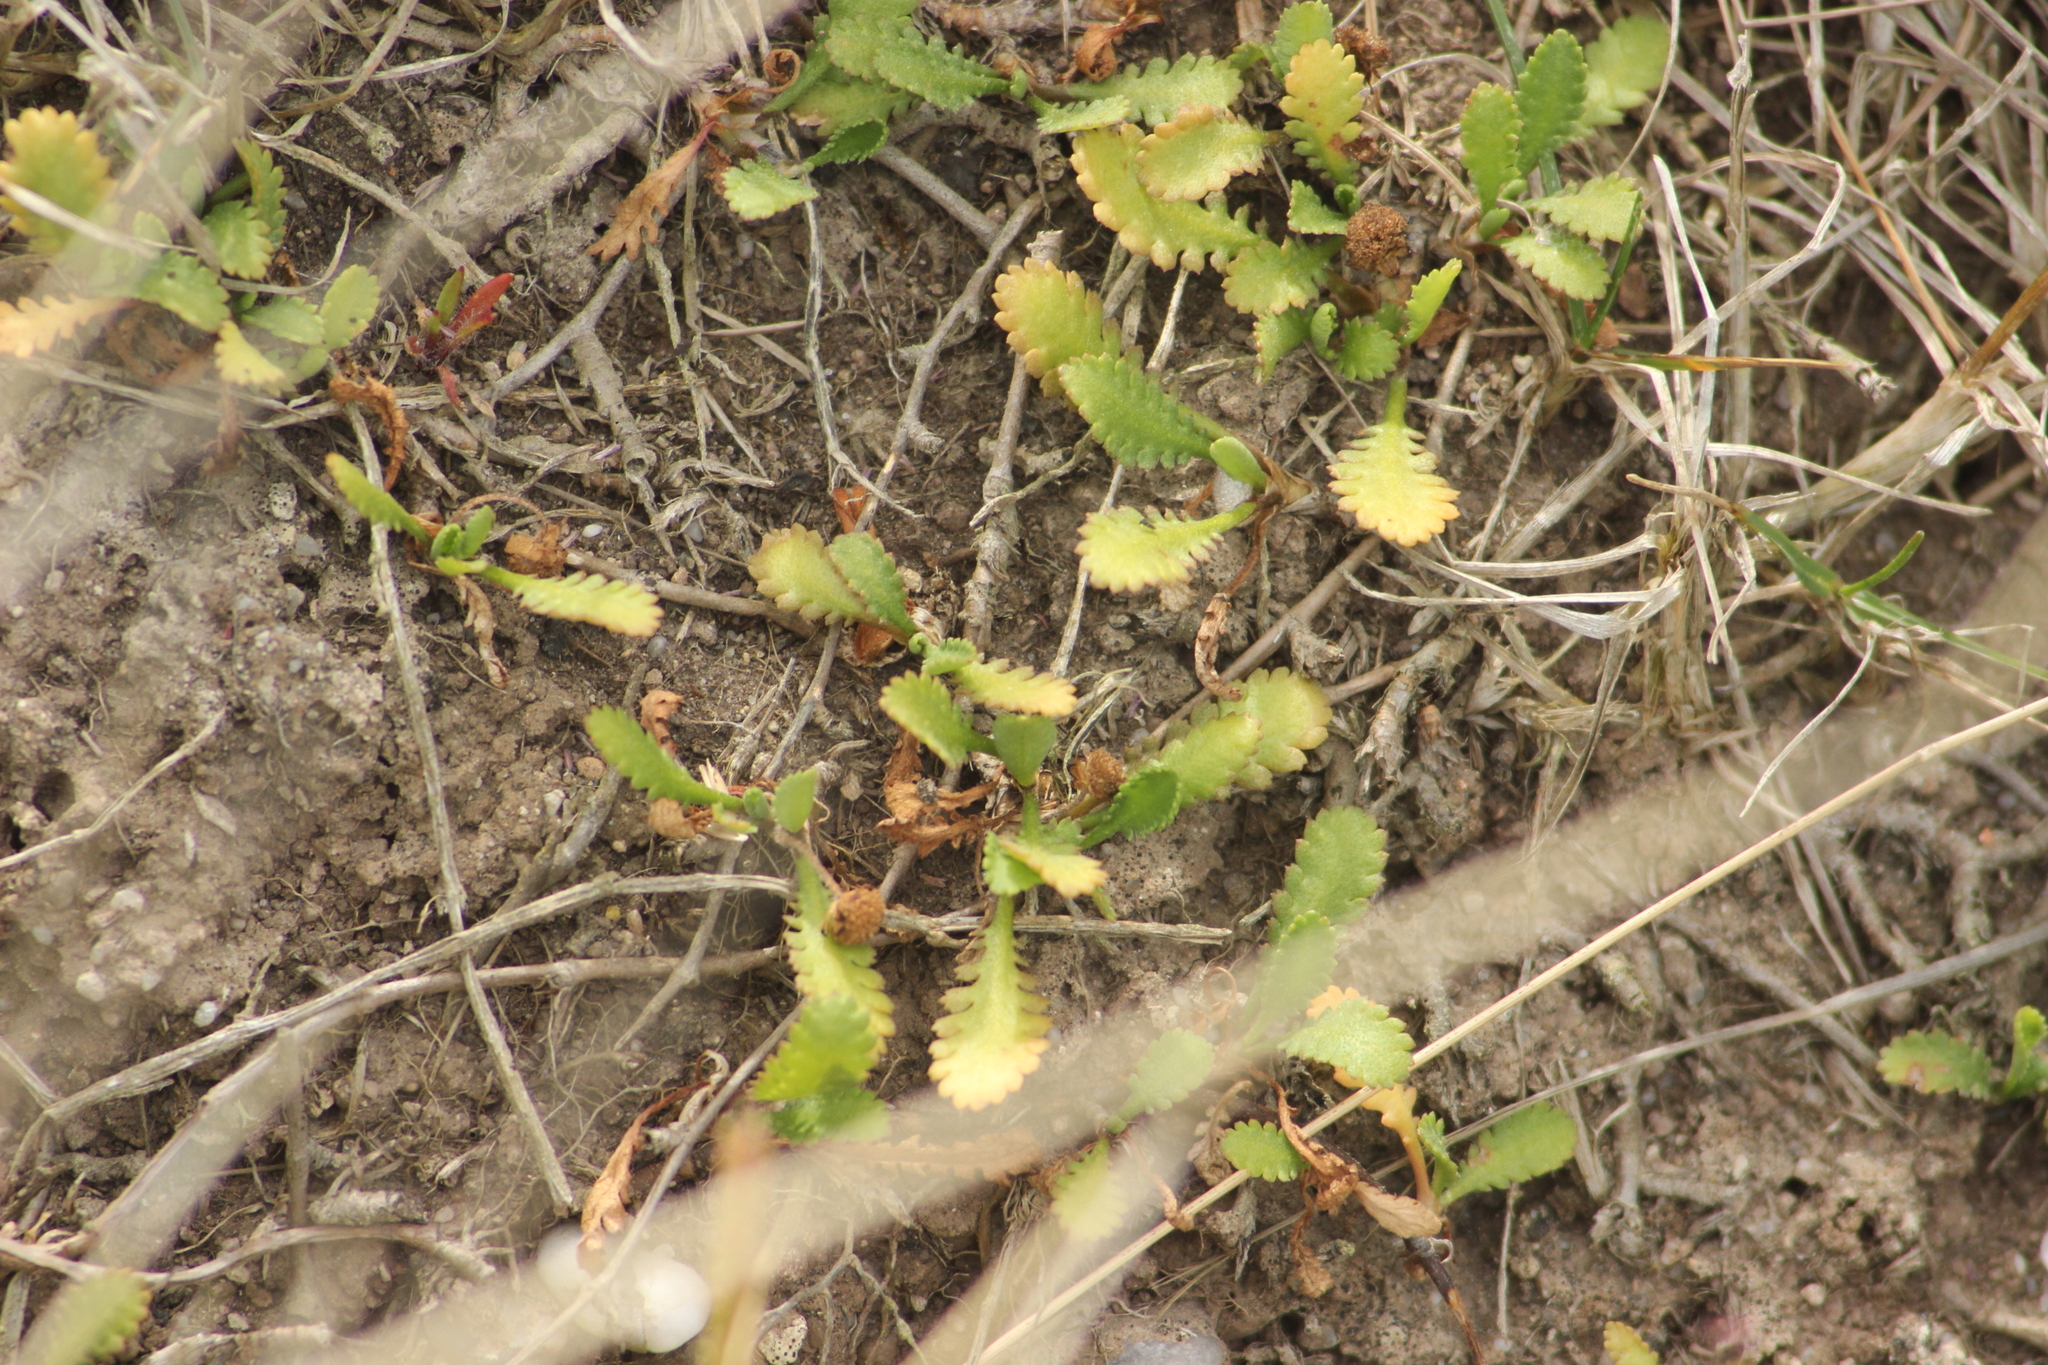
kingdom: Plantae
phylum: Tracheophyta
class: Magnoliopsida
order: Asterales
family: Asteraceae
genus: Leptinella
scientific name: Leptinella dioica
